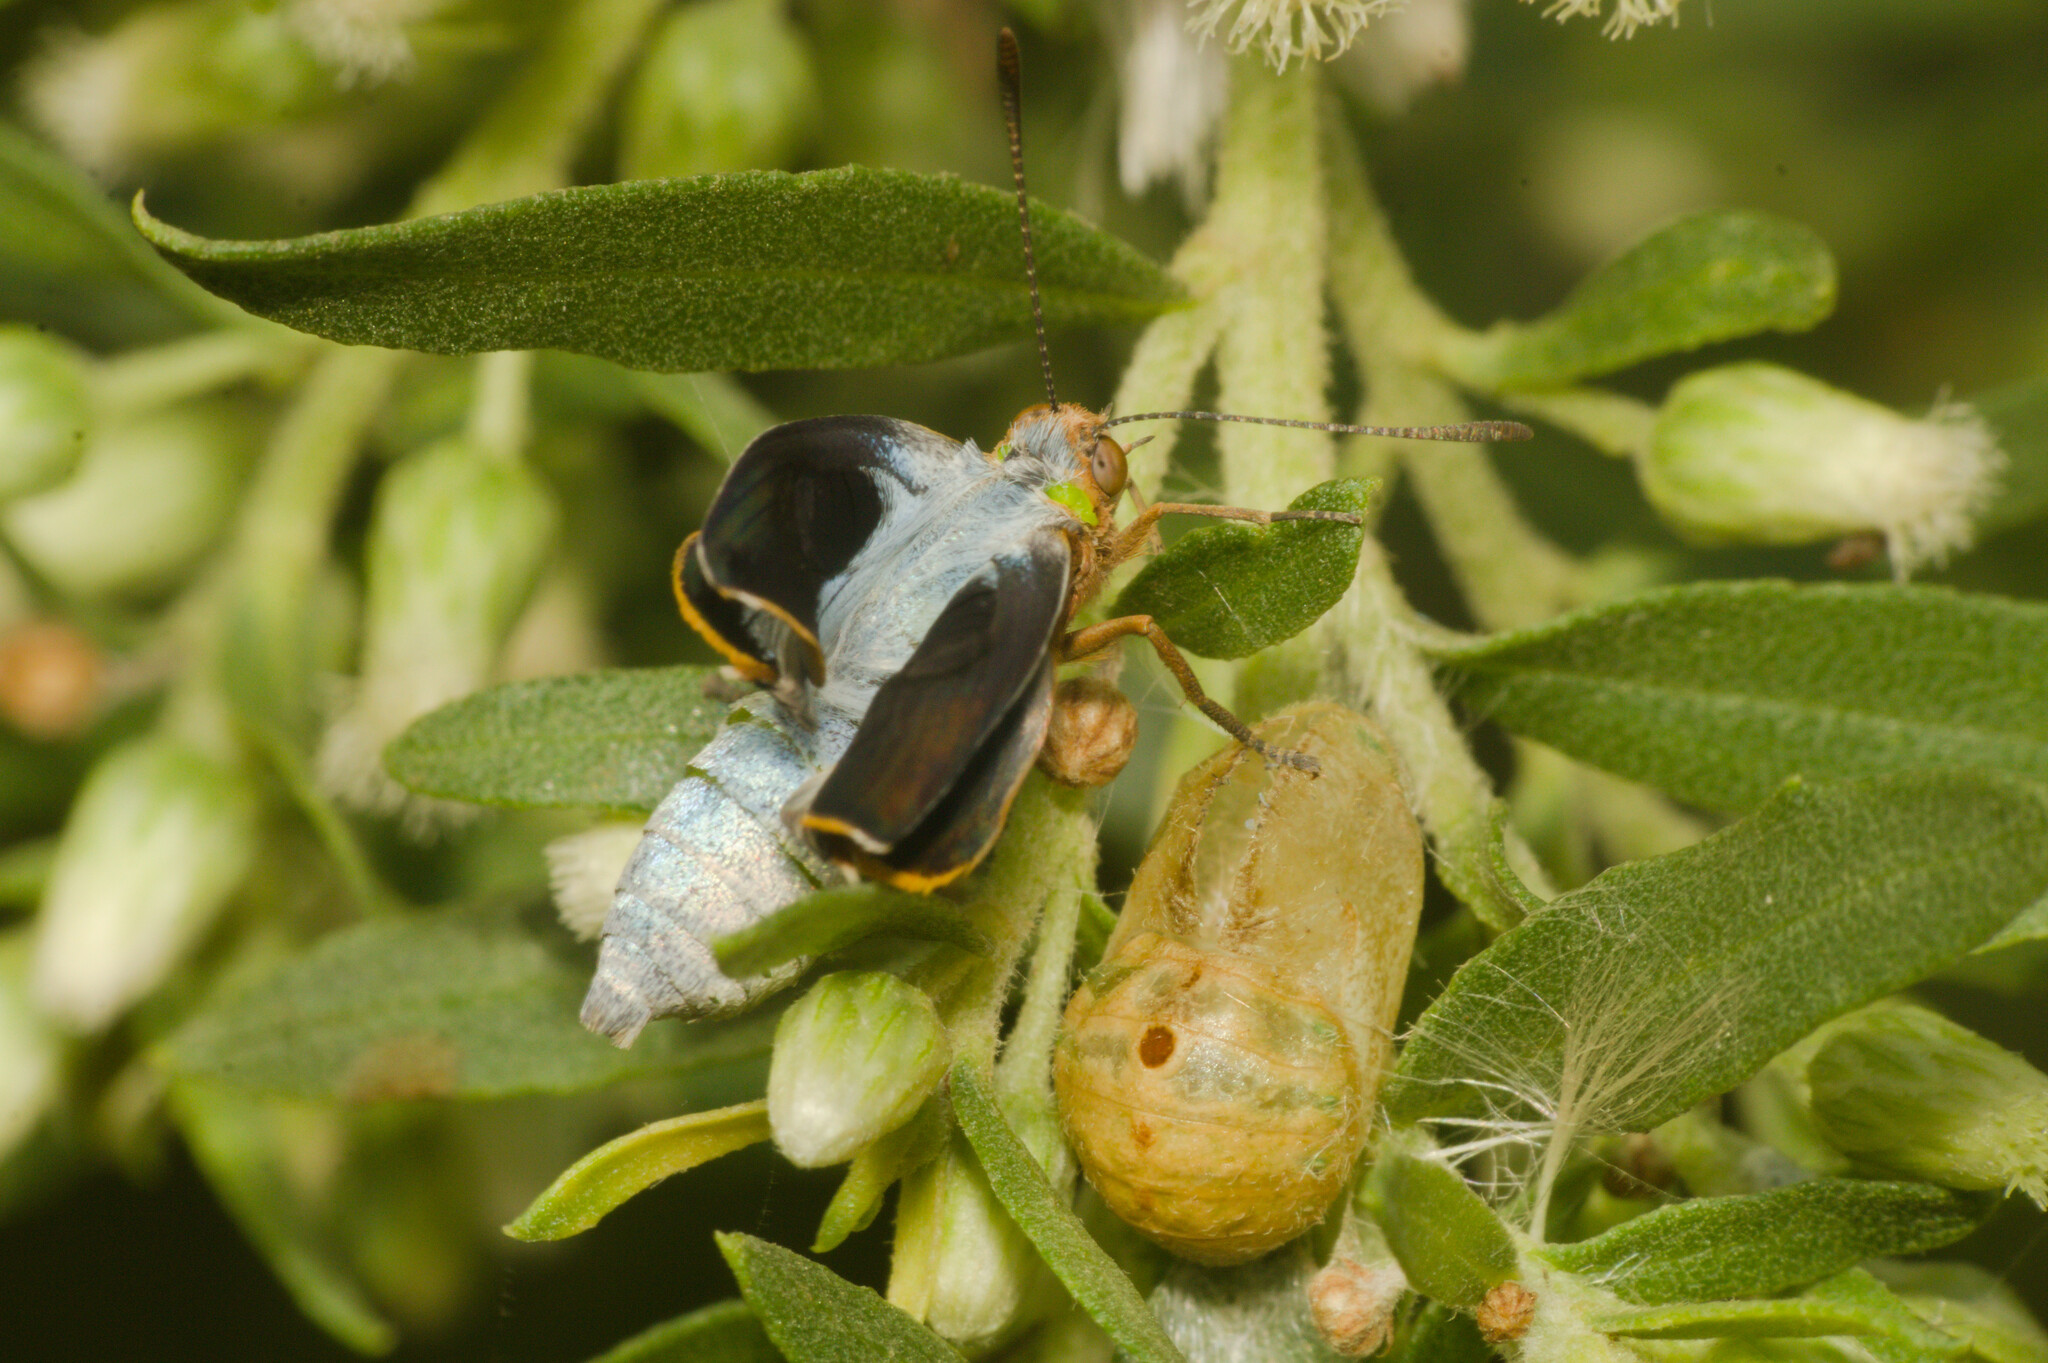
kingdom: Animalia
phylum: Arthropoda
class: Insecta
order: Lepidoptera
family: Lycaenidae
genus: Thecla
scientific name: Thecla marius
